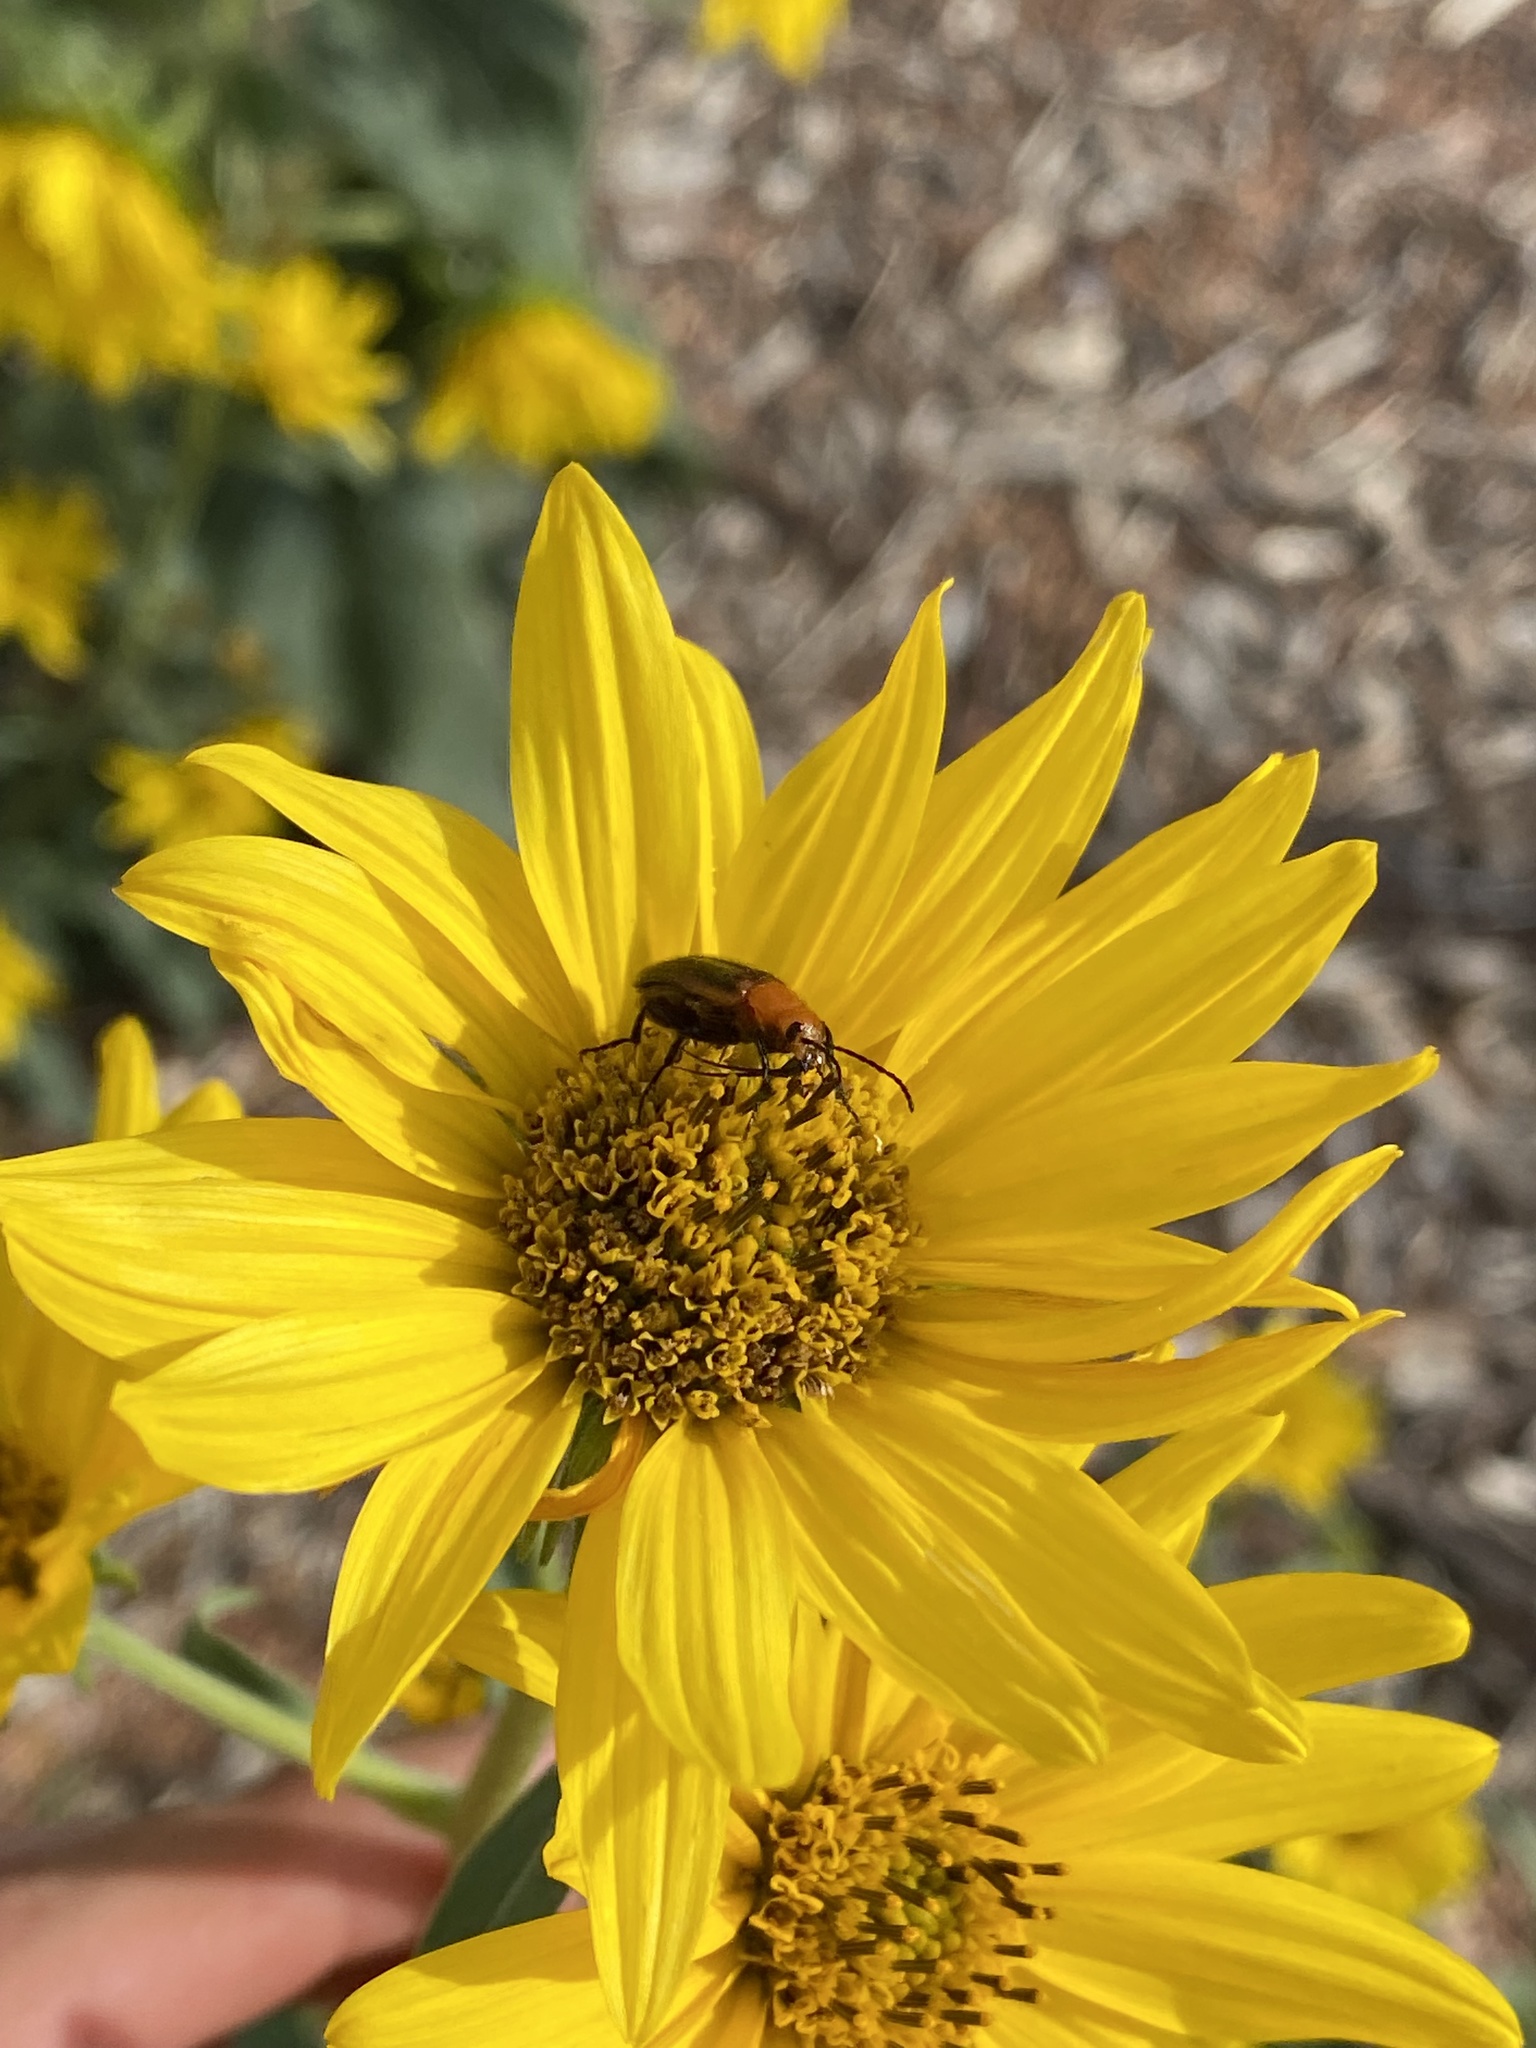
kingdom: Animalia
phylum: Arthropoda
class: Insecta
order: Coleoptera
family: Meloidae
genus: Nemognatha
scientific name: Nemognatha lutea
